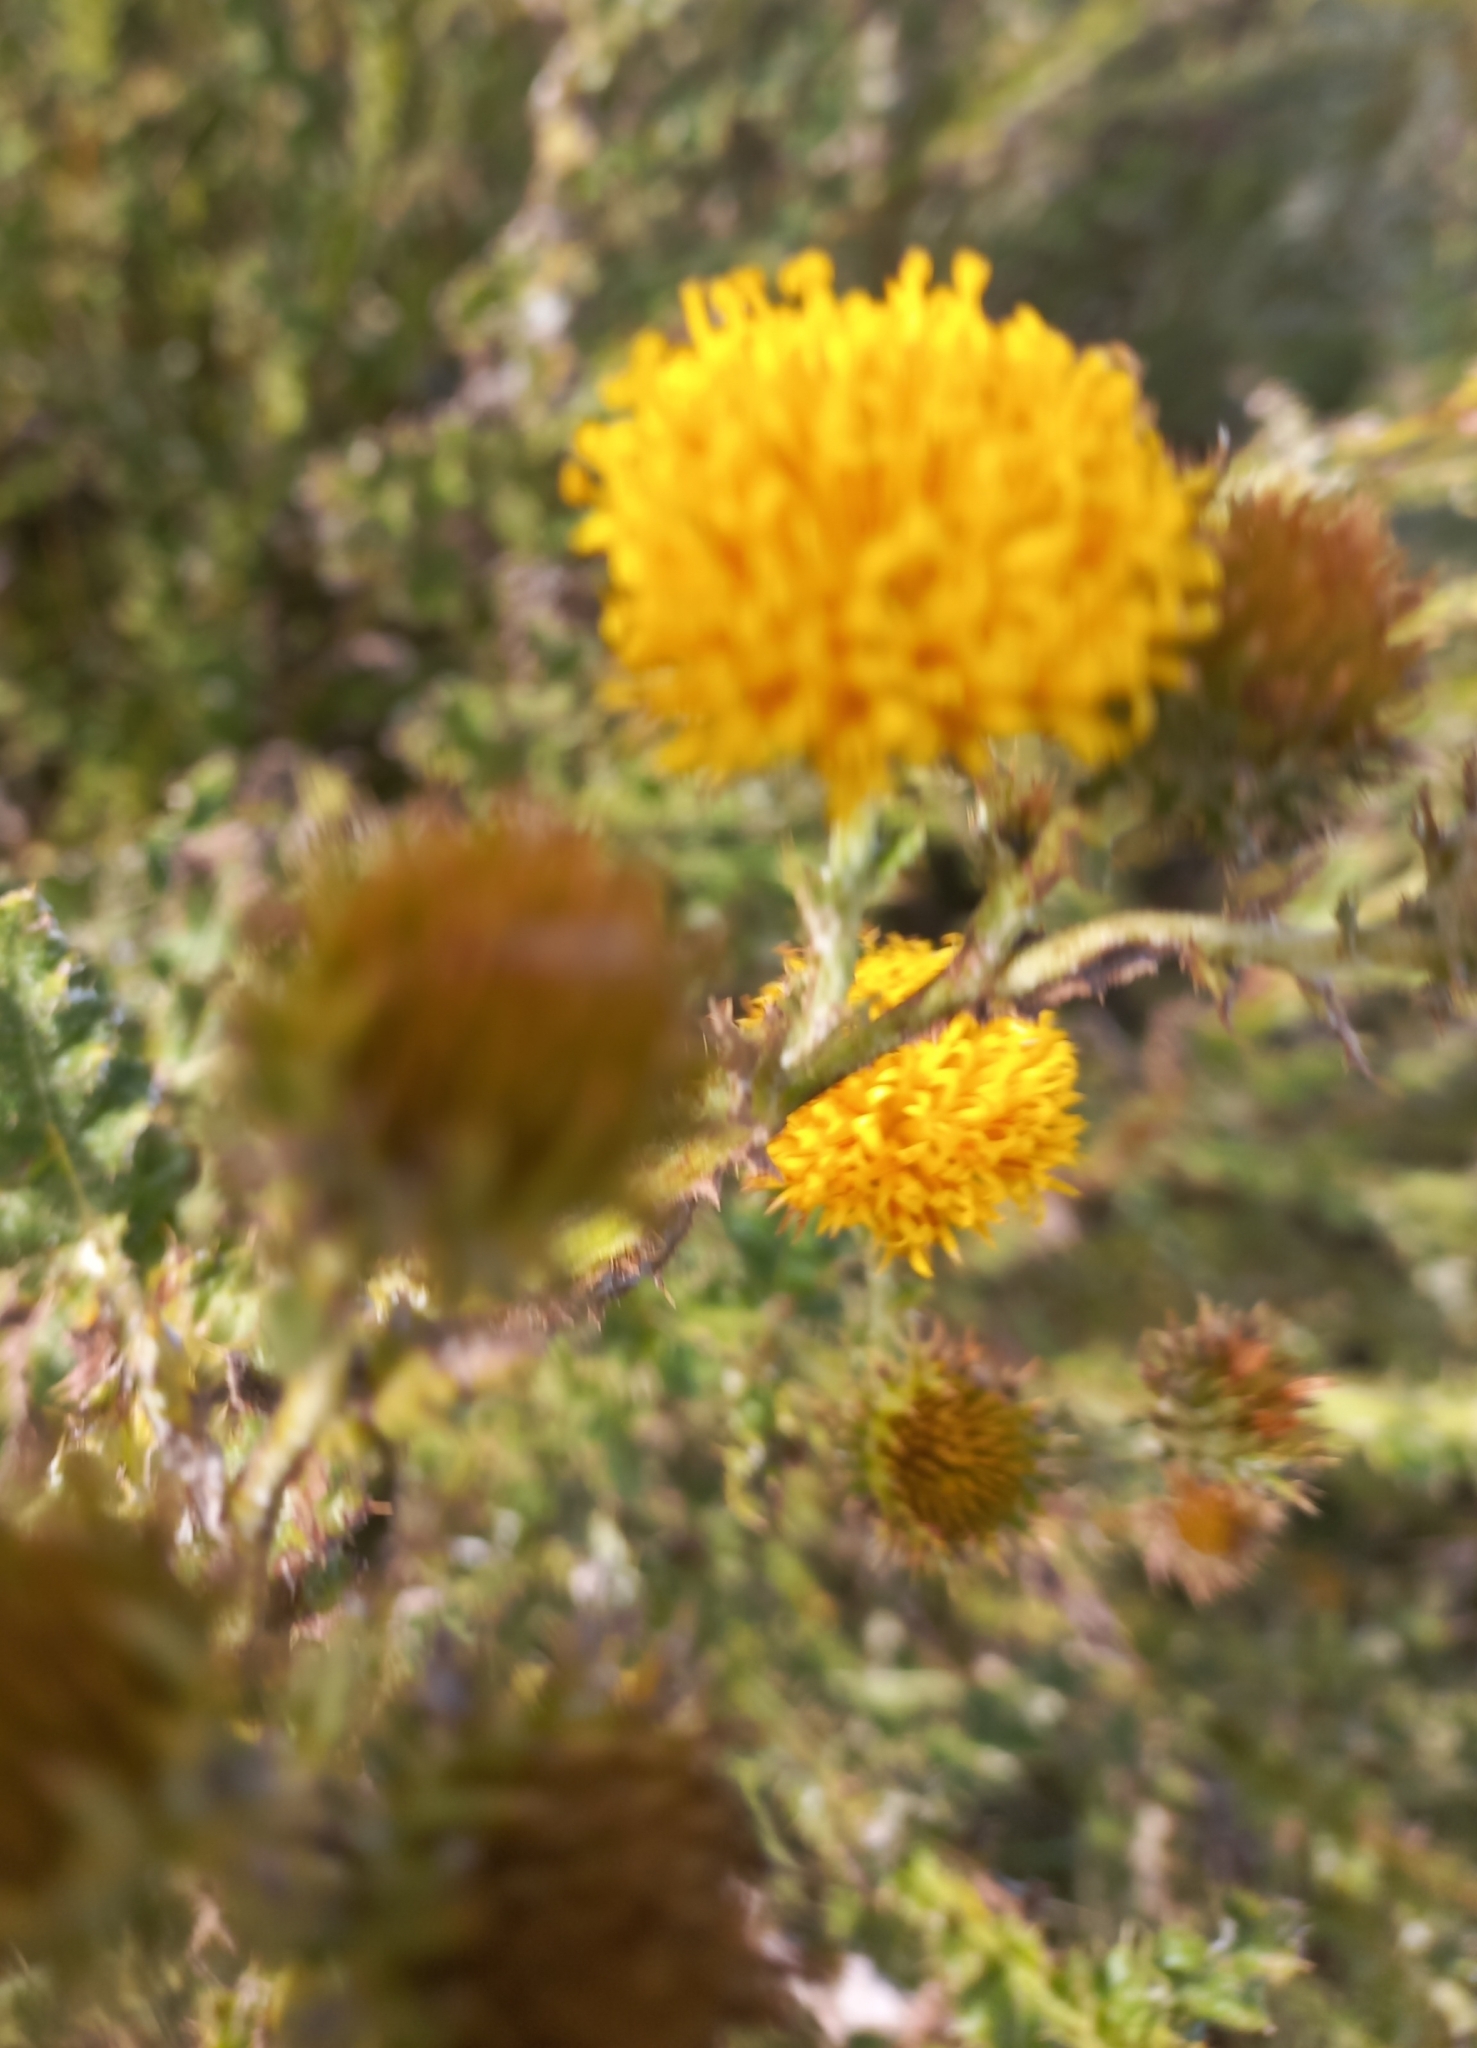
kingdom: Plantae
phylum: Tracheophyta
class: Magnoliopsida
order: Asterales
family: Asteraceae
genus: Chrysocoma
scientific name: Chrysocoma ciliata
